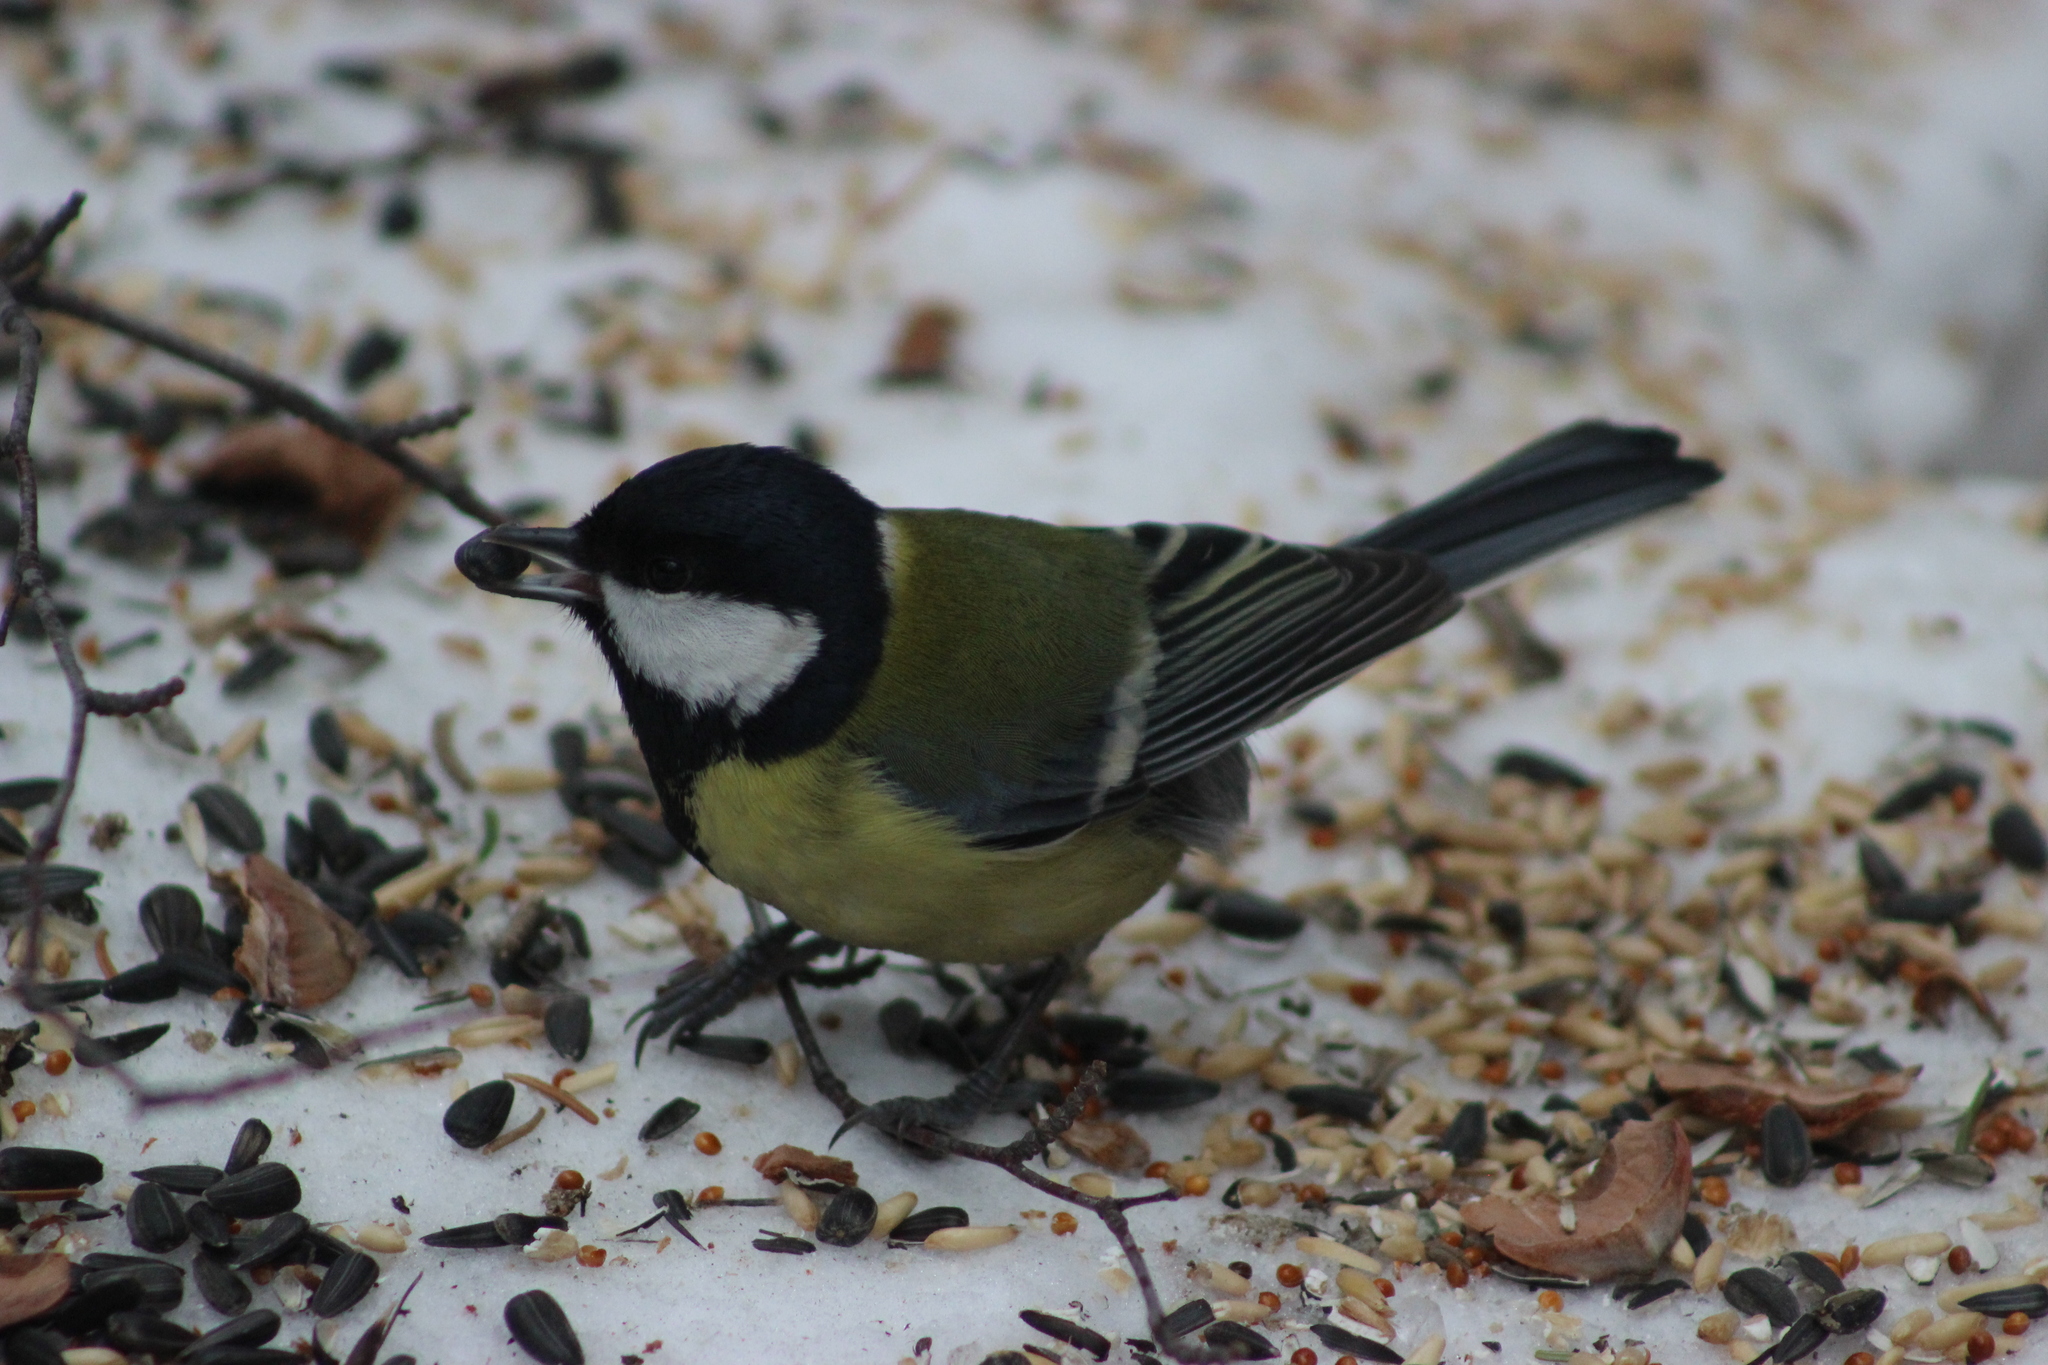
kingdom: Animalia
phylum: Chordata
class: Aves
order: Passeriformes
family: Paridae
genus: Parus
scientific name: Parus major
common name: Great tit
